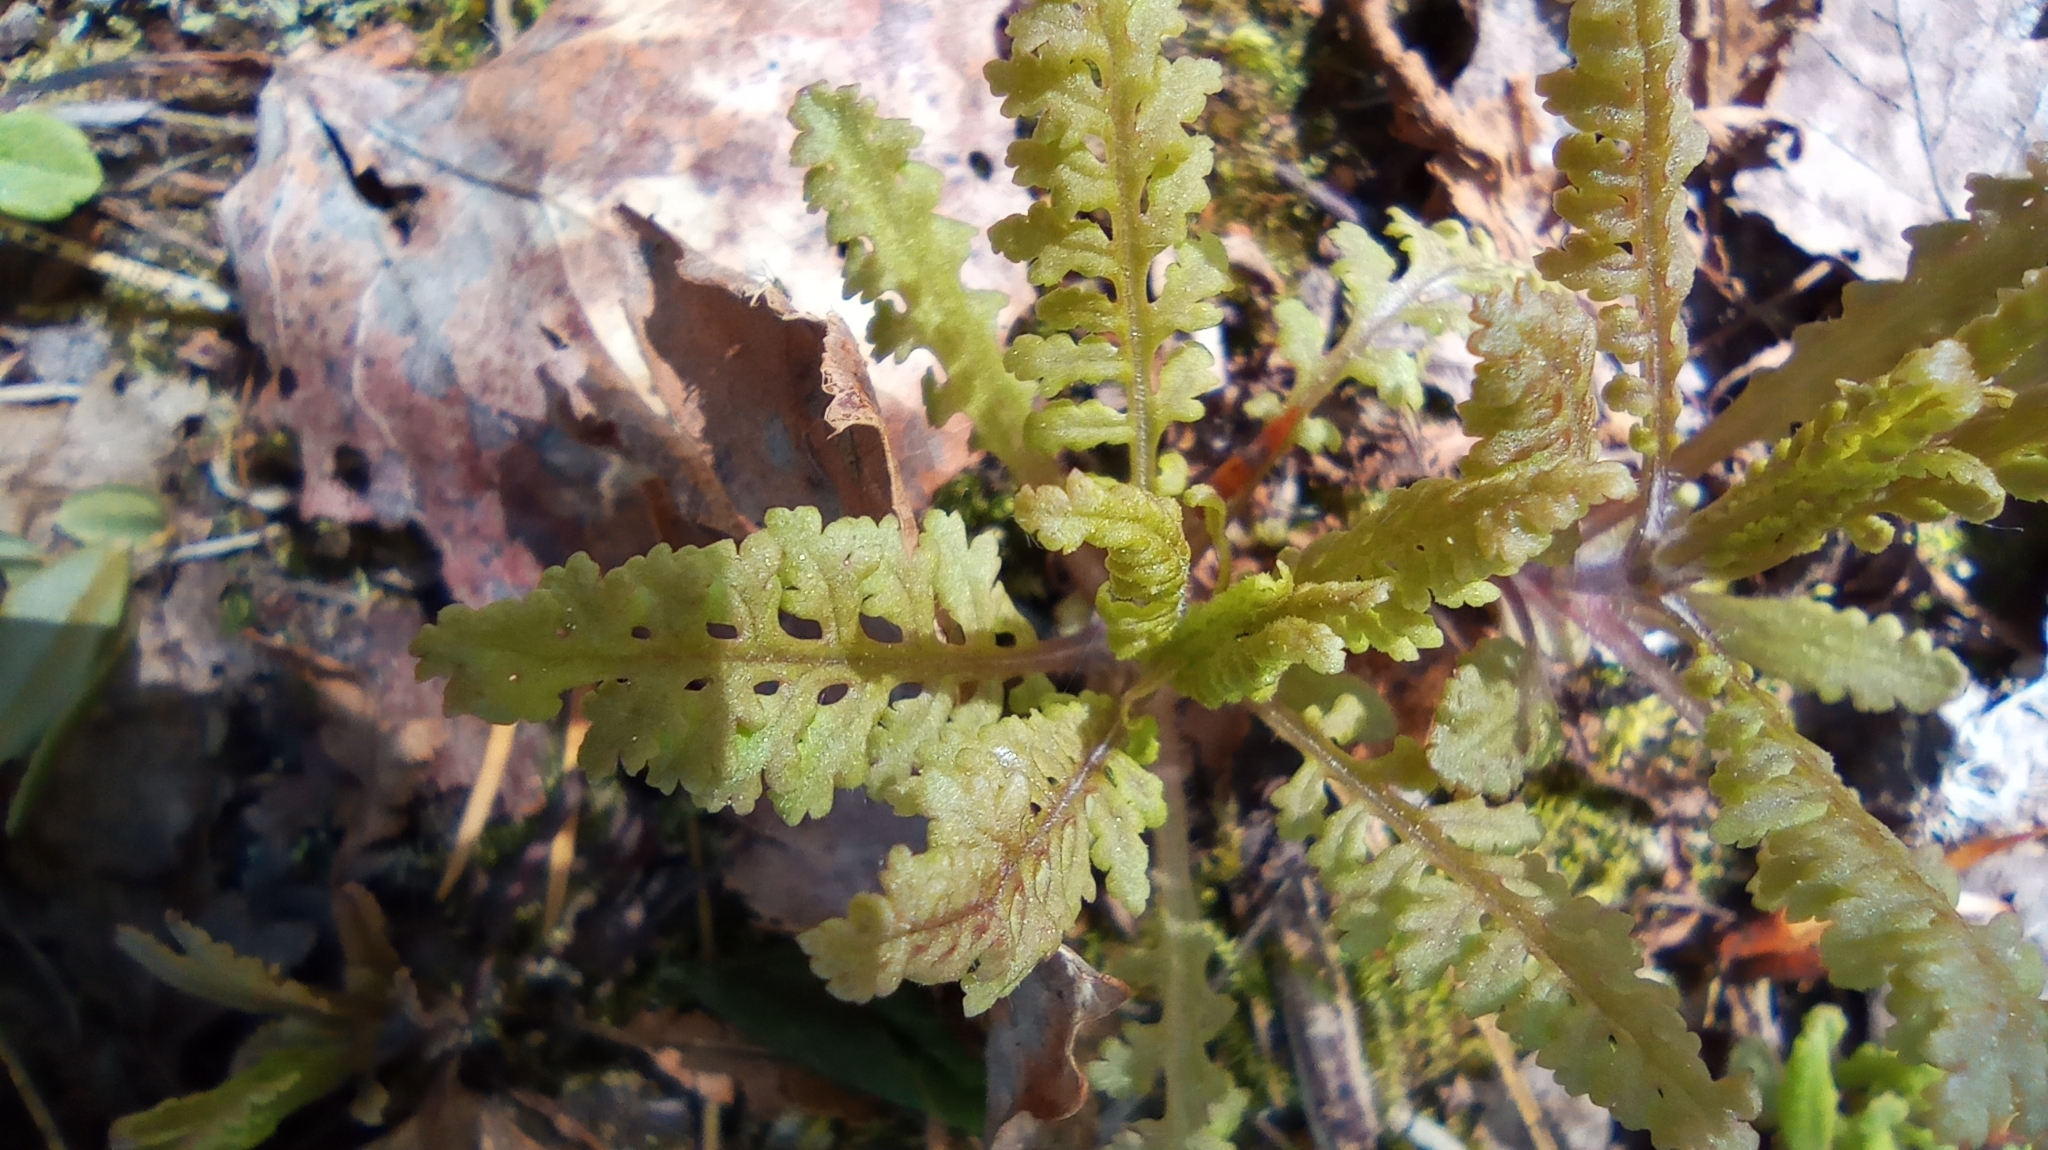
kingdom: Plantae
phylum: Tracheophyta
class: Magnoliopsida
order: Lamiales
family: Orobanchaceae
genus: Pedicularis
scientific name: Pedicularis labradorica
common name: Labrador lousewort
